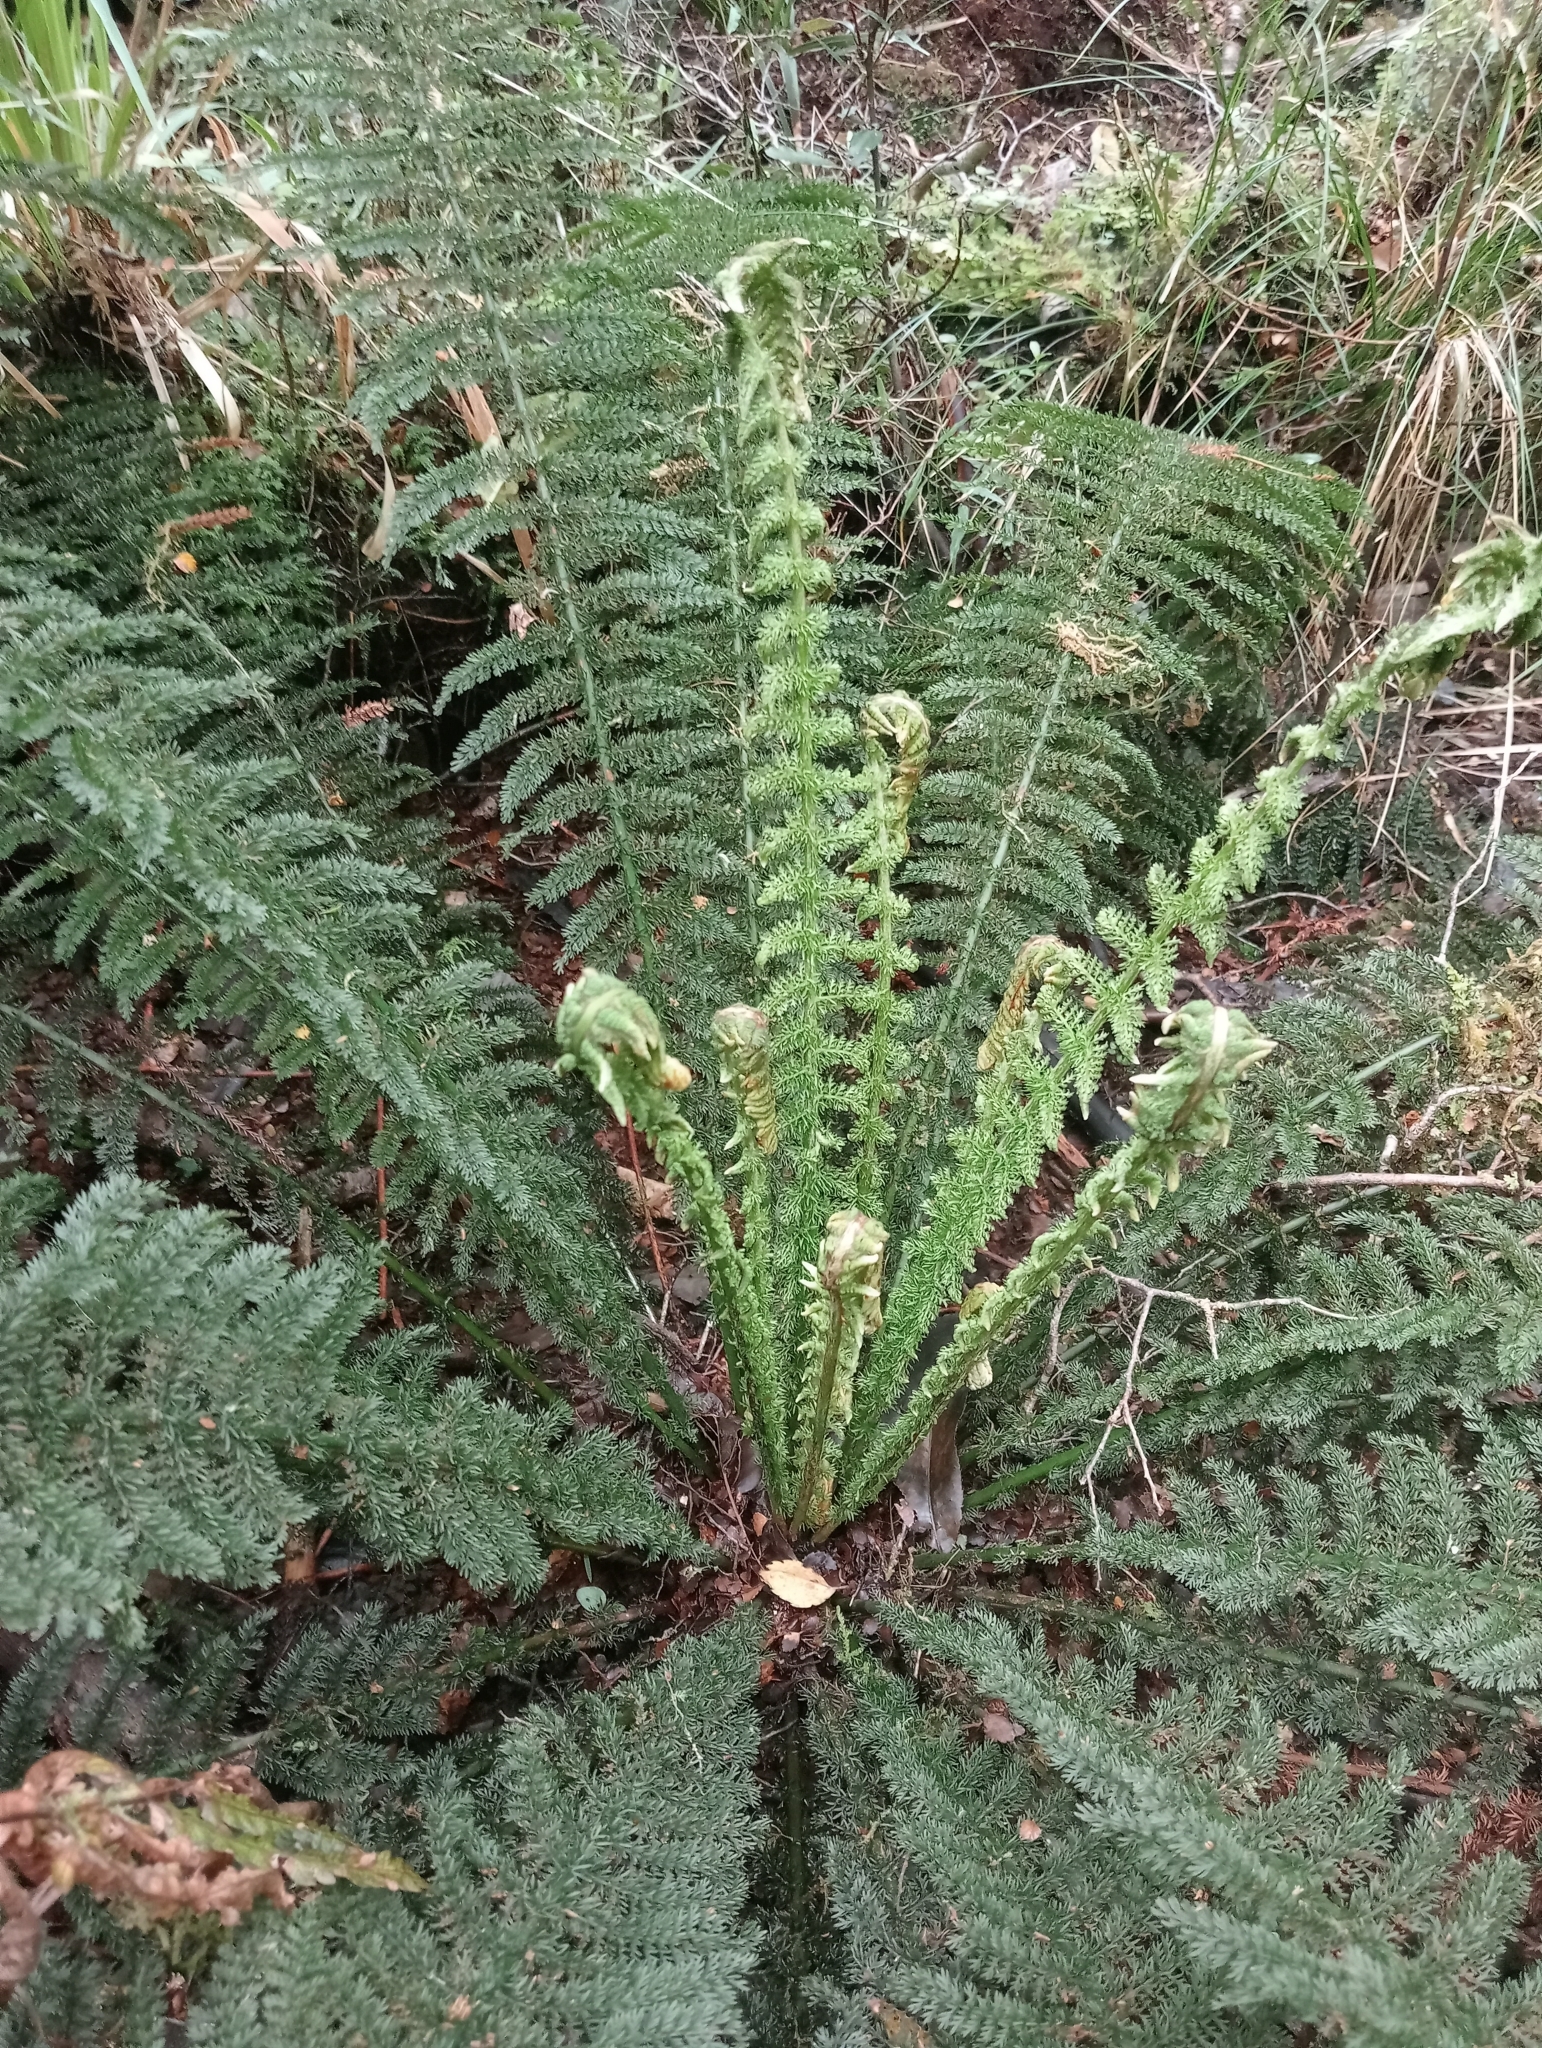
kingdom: Plantae
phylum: Tracheophyta
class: Polypodiopsida
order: Osmundales
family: Osmundaceae
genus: Leptopteris
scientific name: Leptopteris superba
